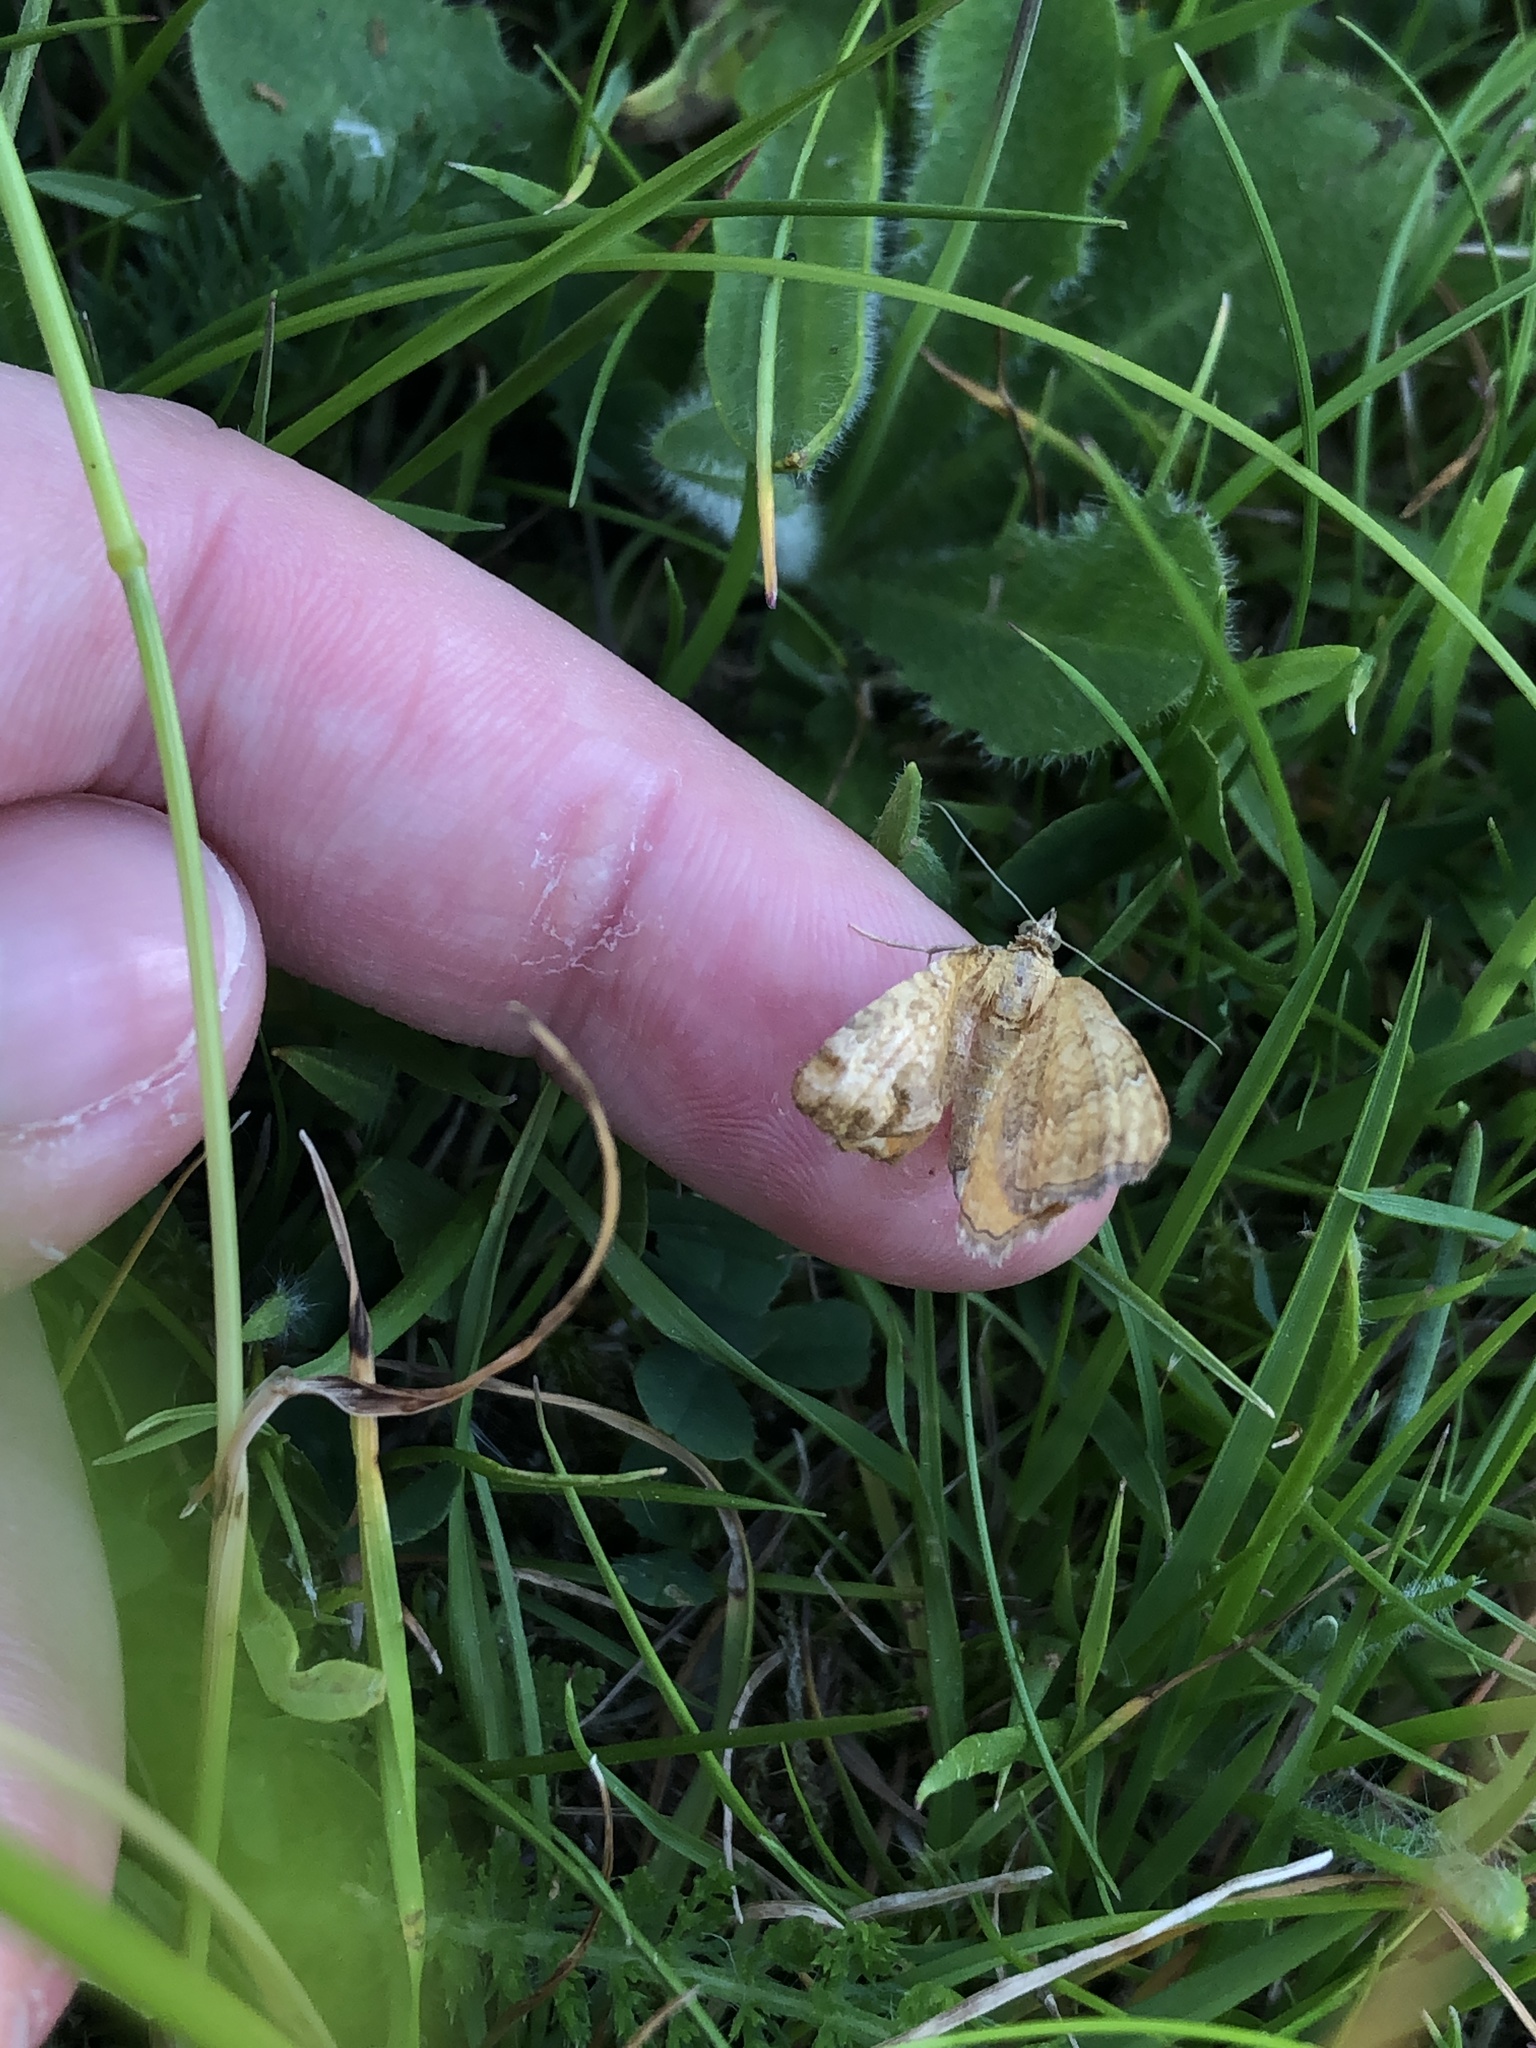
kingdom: Animalia
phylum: Arthropoda
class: Insecta
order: Lepidoptera
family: Geometridae
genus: Camptogramma
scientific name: Camptogramma bilineata
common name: Yellow shell
